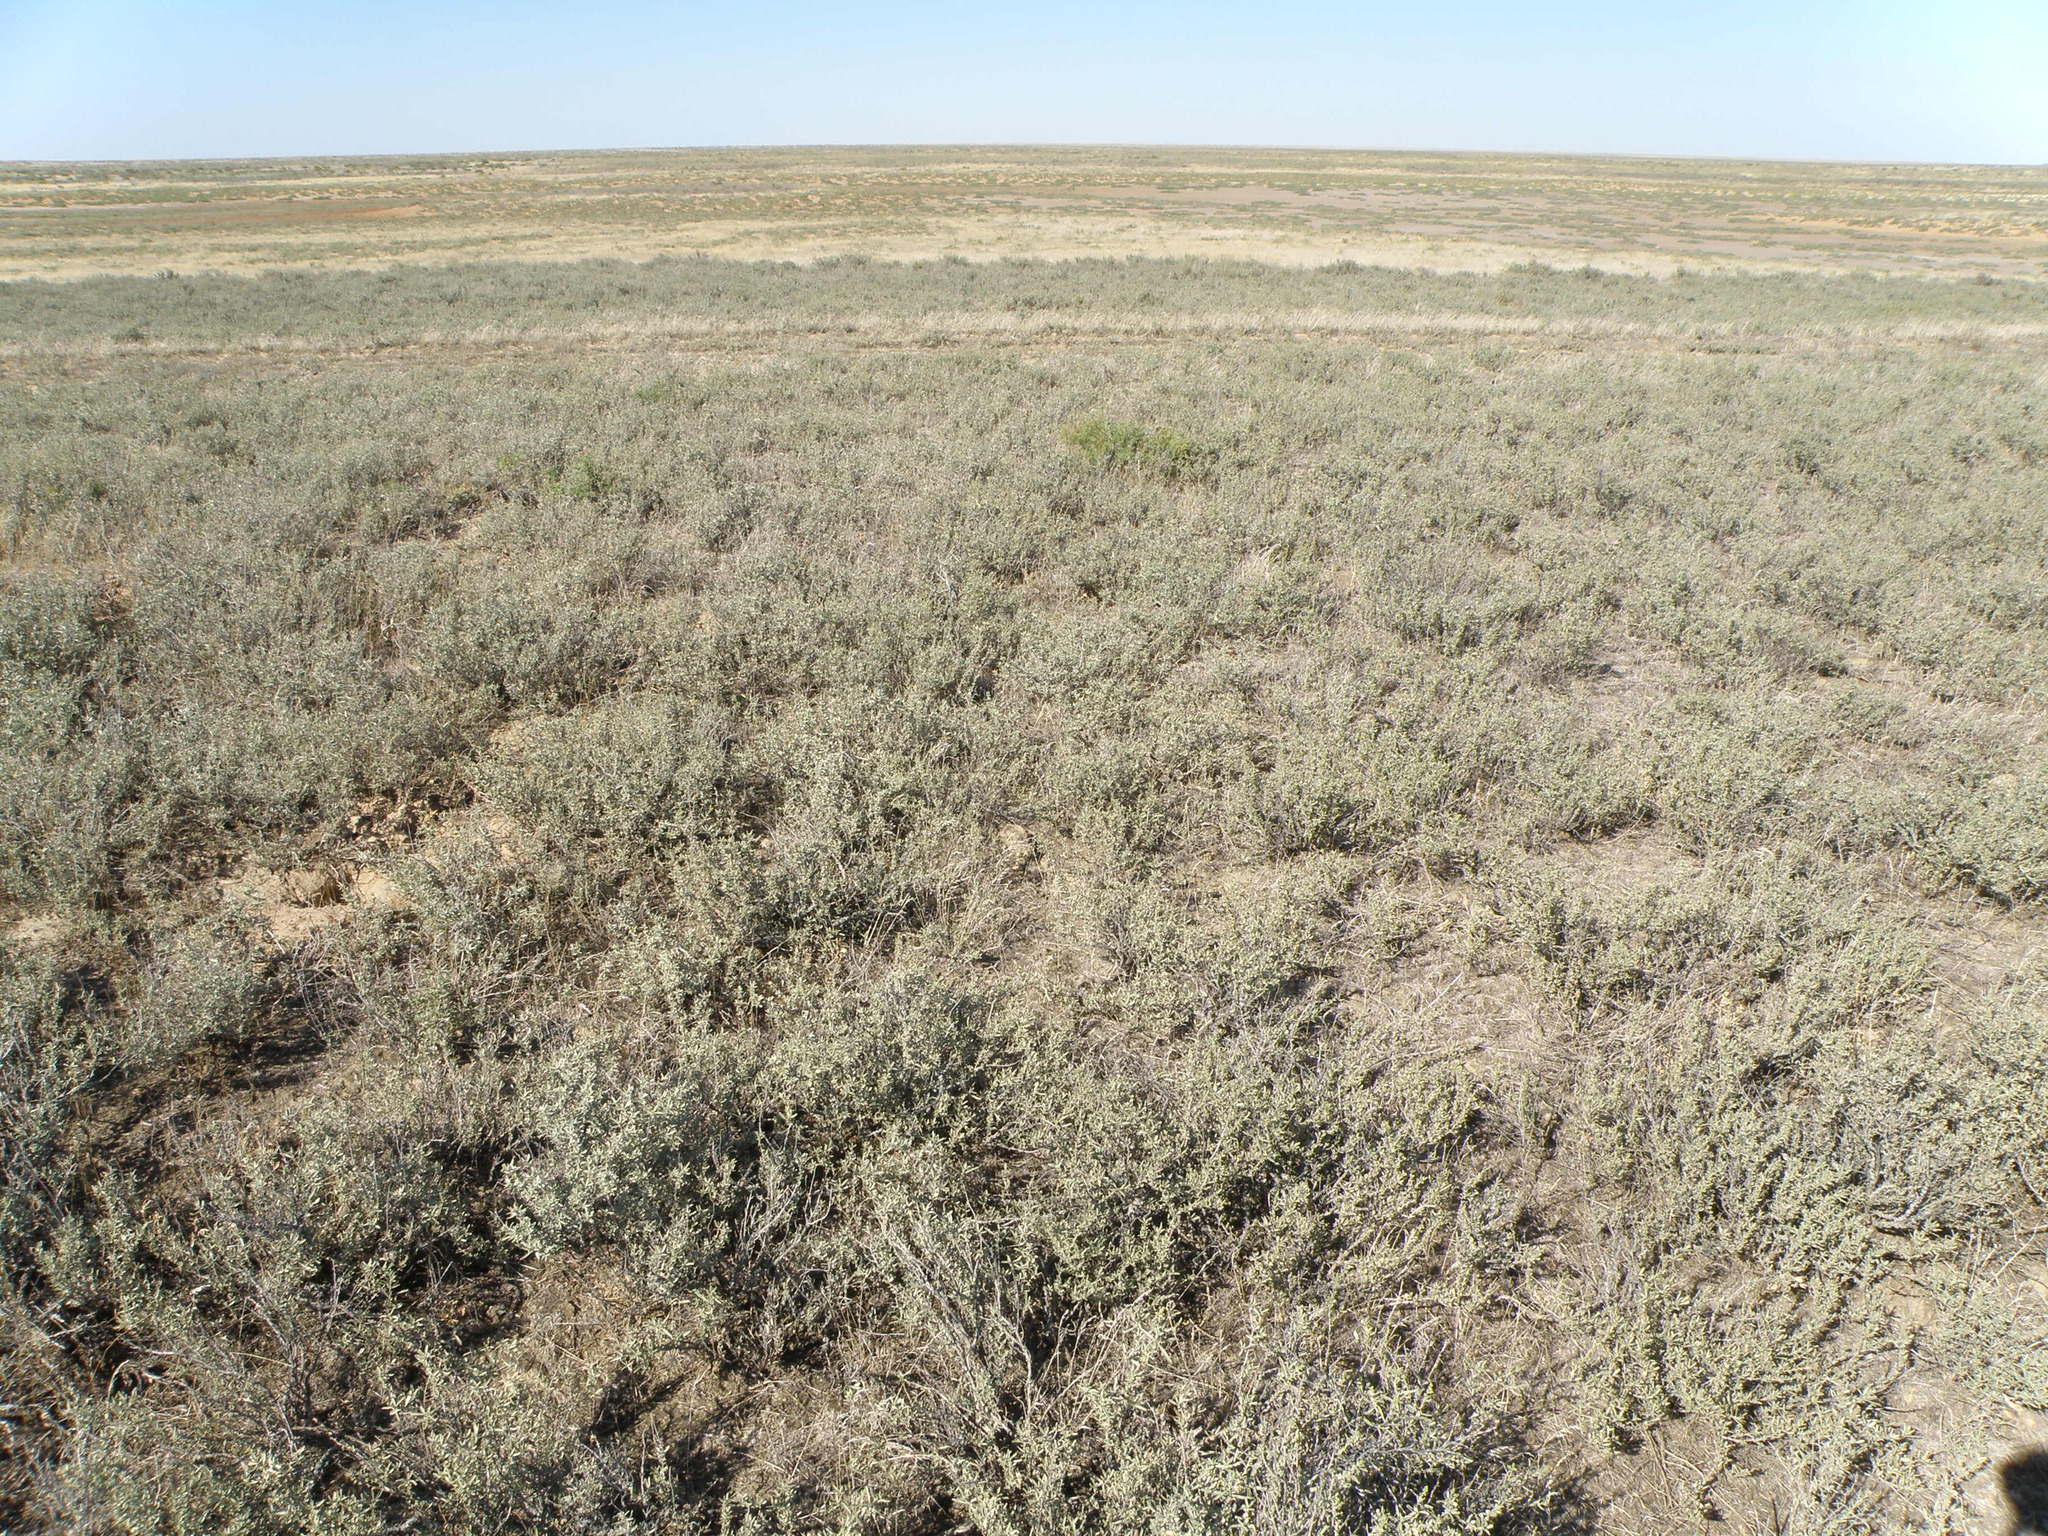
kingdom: Plantae
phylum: Tracheophyta
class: Magnoliopsida
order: Caryophyllales
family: Amaranthaceae
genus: Atriplex
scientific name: Atriplex cana
